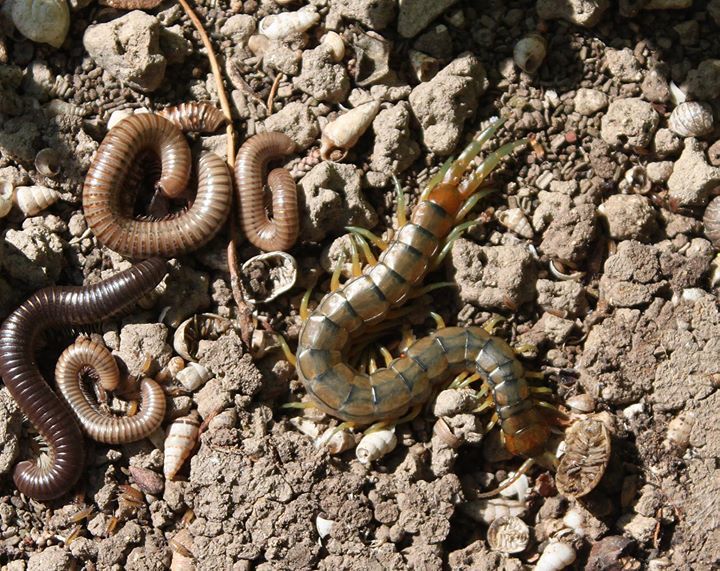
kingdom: Animalia
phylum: Arthropoda
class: Chilopoda
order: Scolopendromorpha
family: Scolopendridae
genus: Scolopendra
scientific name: Scolopendra cingulata
